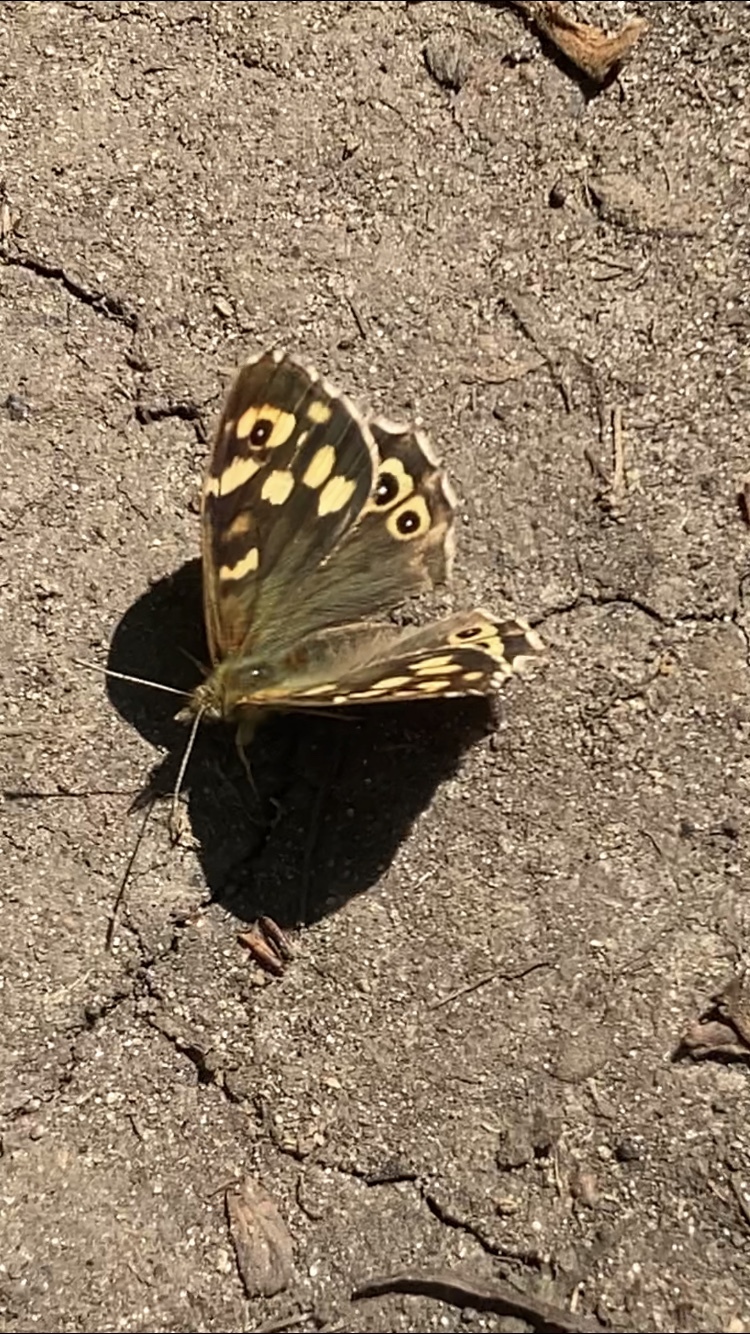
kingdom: Animalia
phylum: Arthropoda
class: Insecta
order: Lepidoptera
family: Nymphalidae
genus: Pararge
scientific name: Pararge aegeria
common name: Speckled wood
